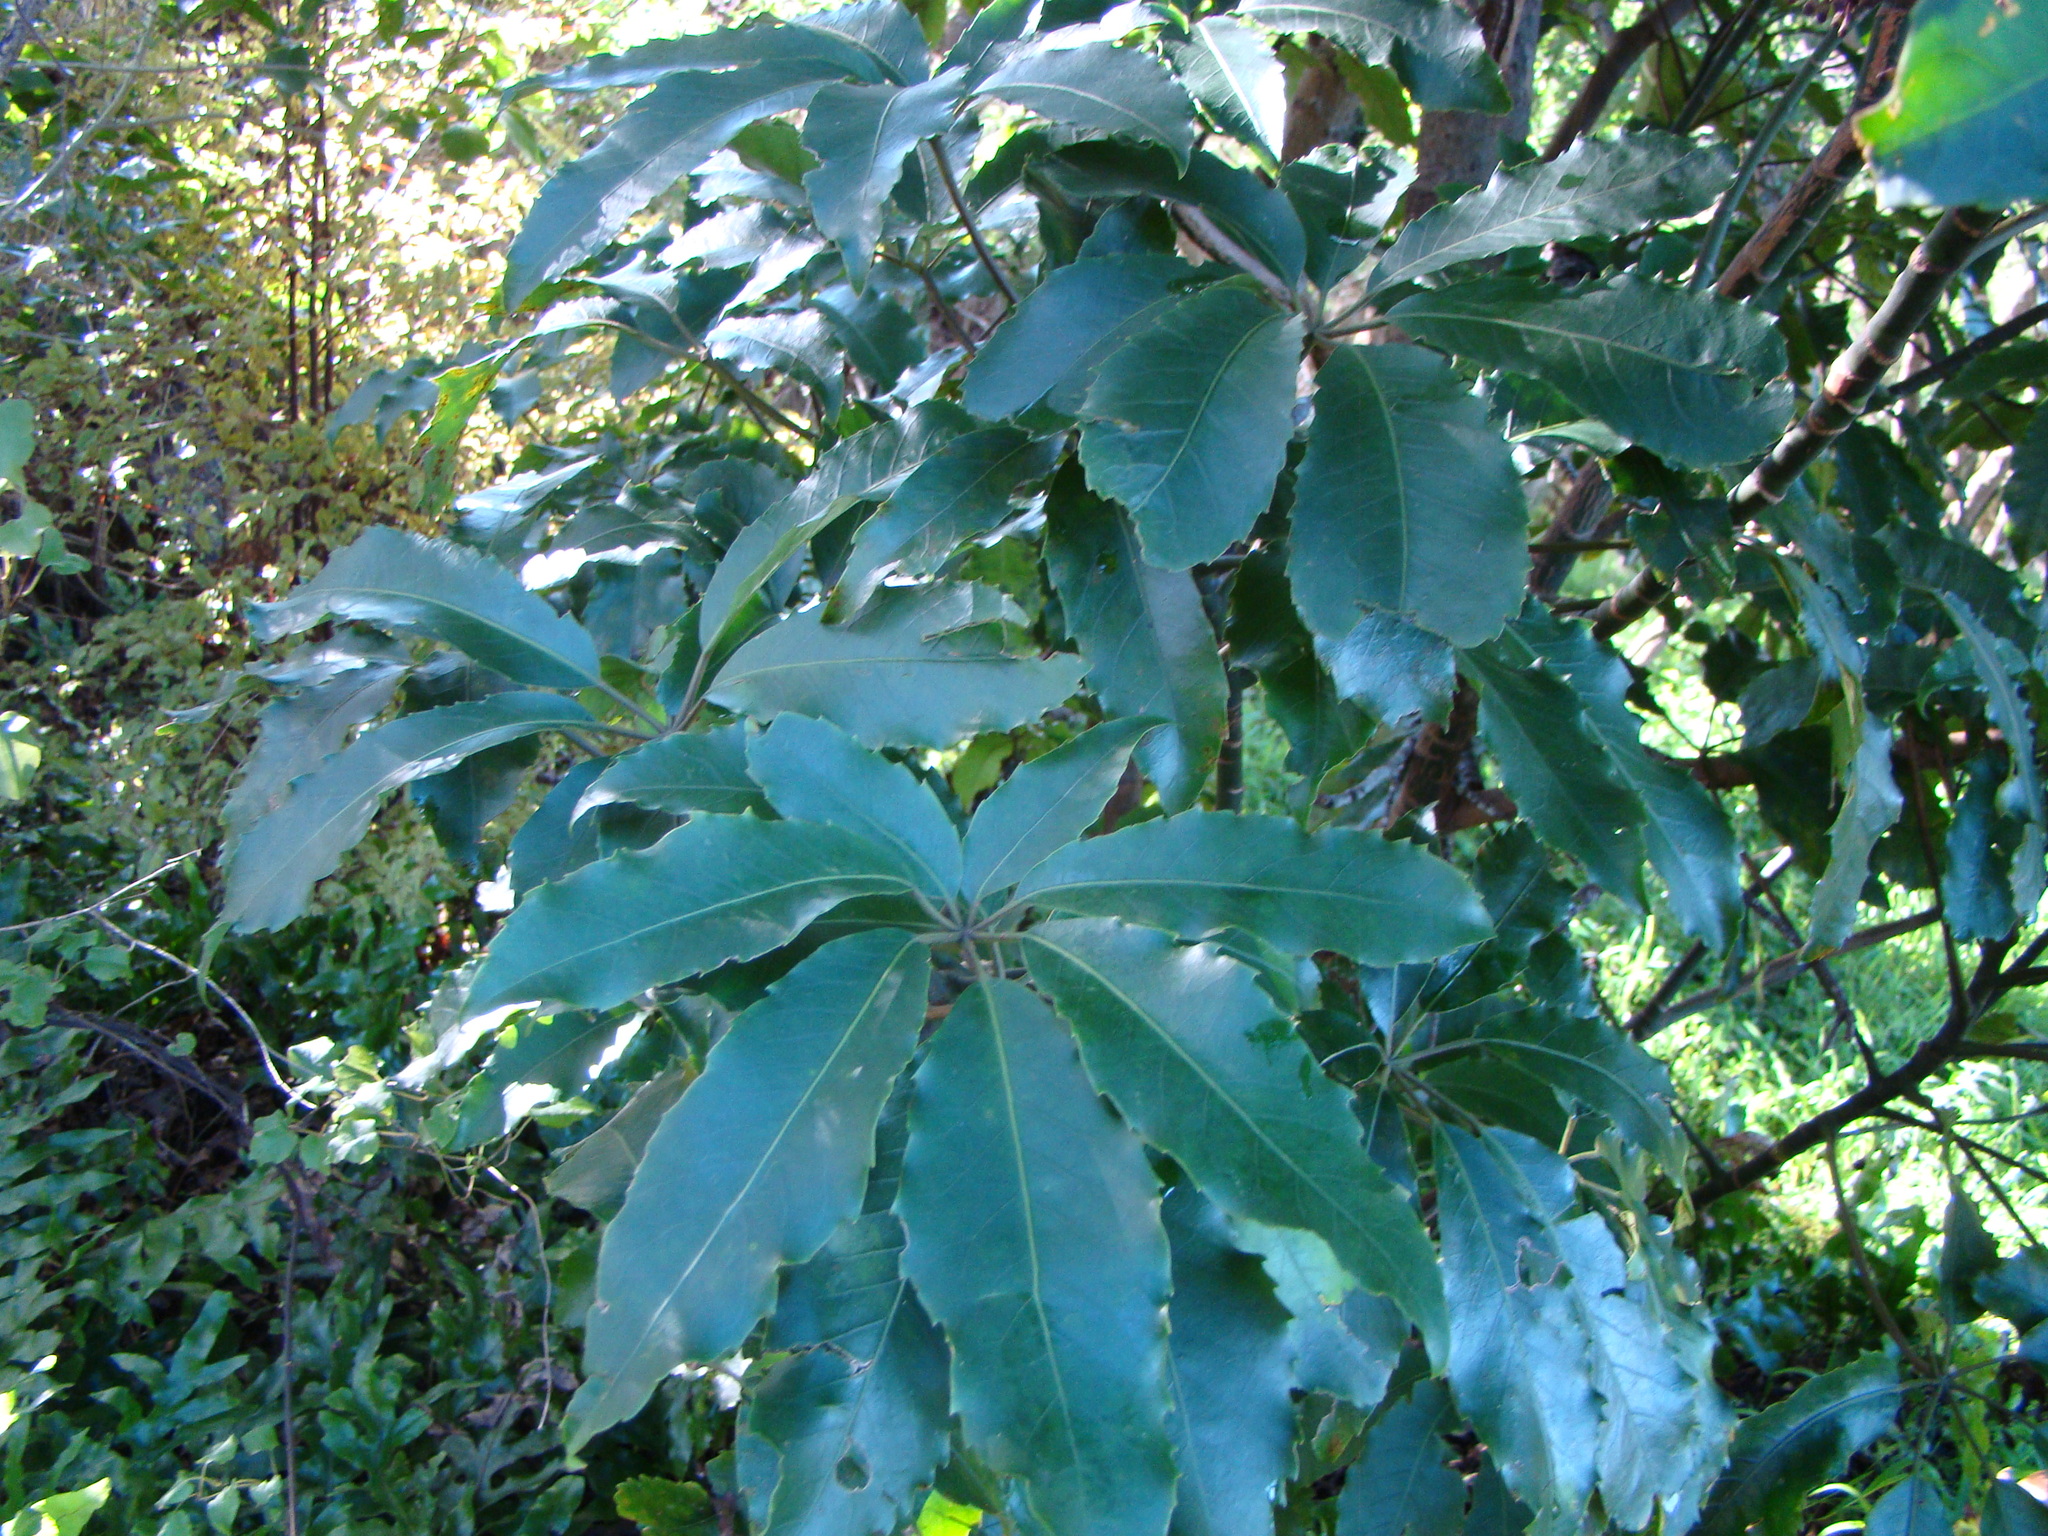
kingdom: Plantae
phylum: Tracheophyta
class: Magnoliopsida
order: Apiales
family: Araliaceae
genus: Neopanax
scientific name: Neopanax arboreus
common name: Five-fingers
